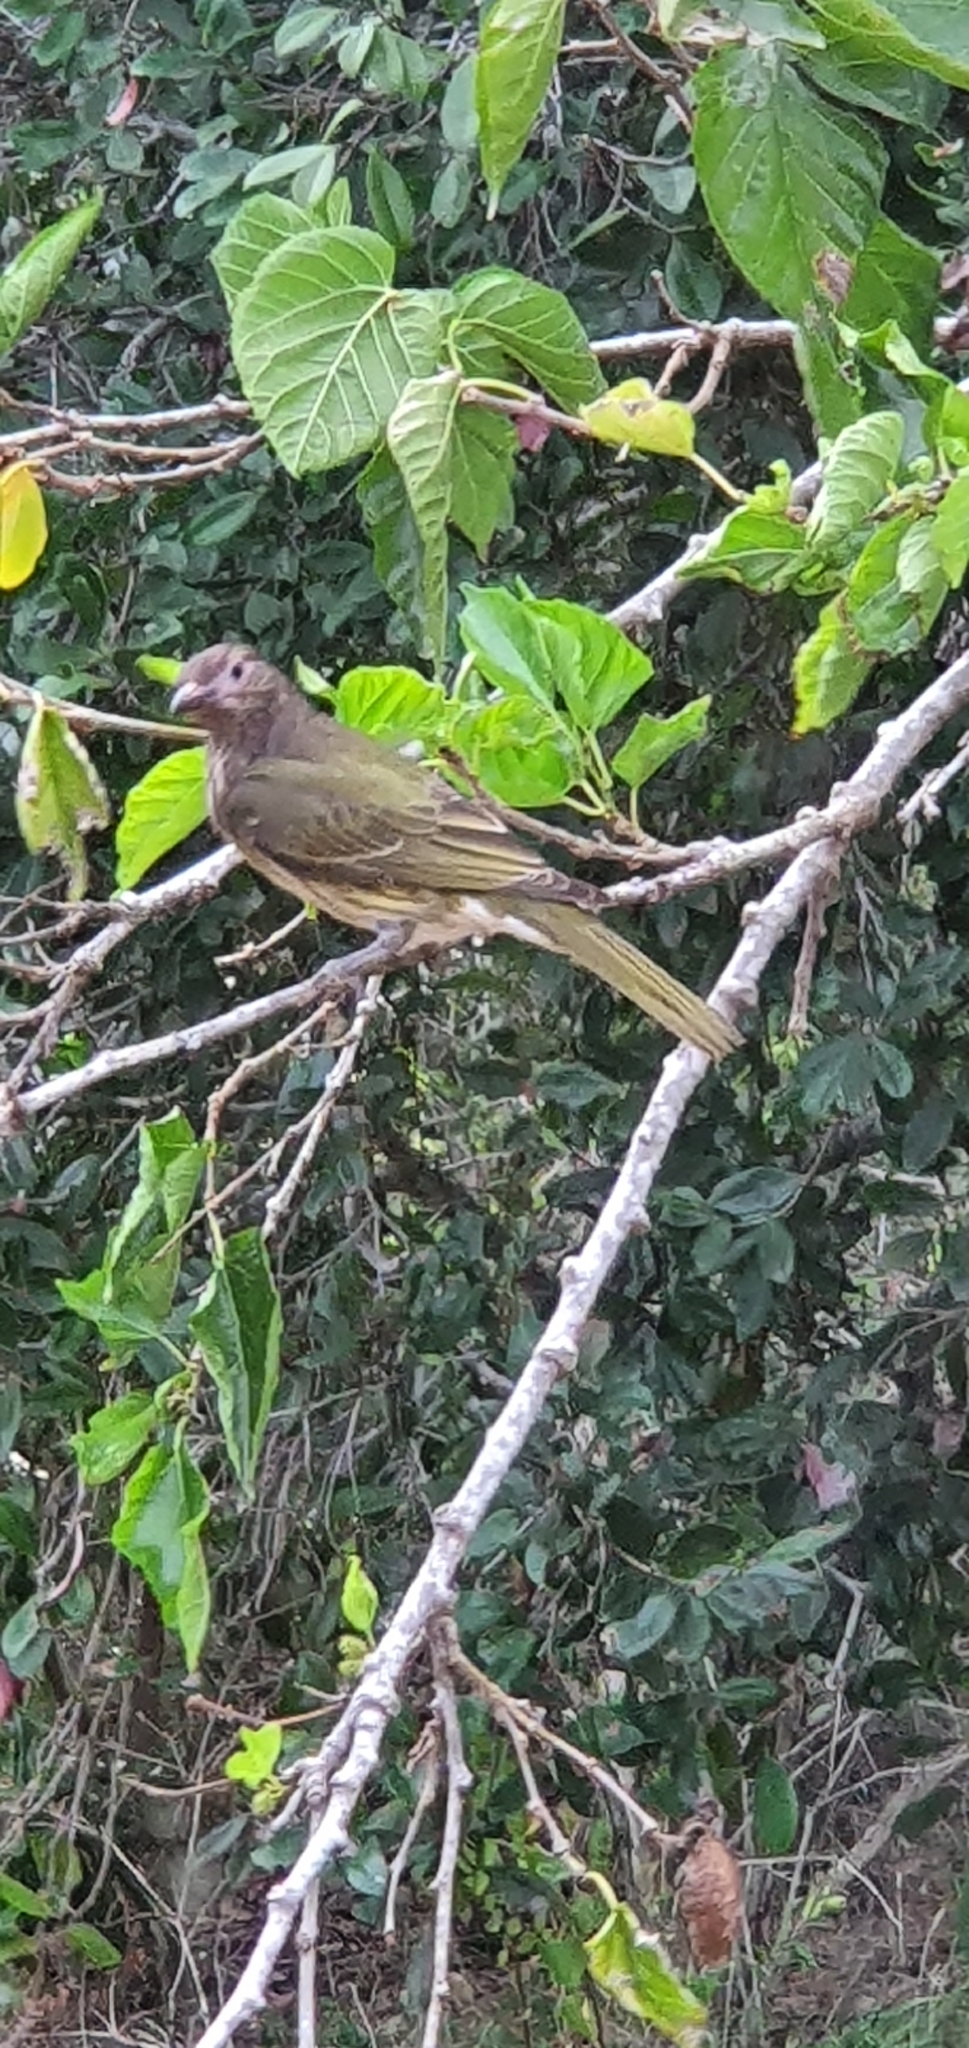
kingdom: Animalia
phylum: Chordata
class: Aves
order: Passeriformes
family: Oriolidae
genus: Sphecotheres
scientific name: Sphecotheres vieilloti
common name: Australasian figbird
